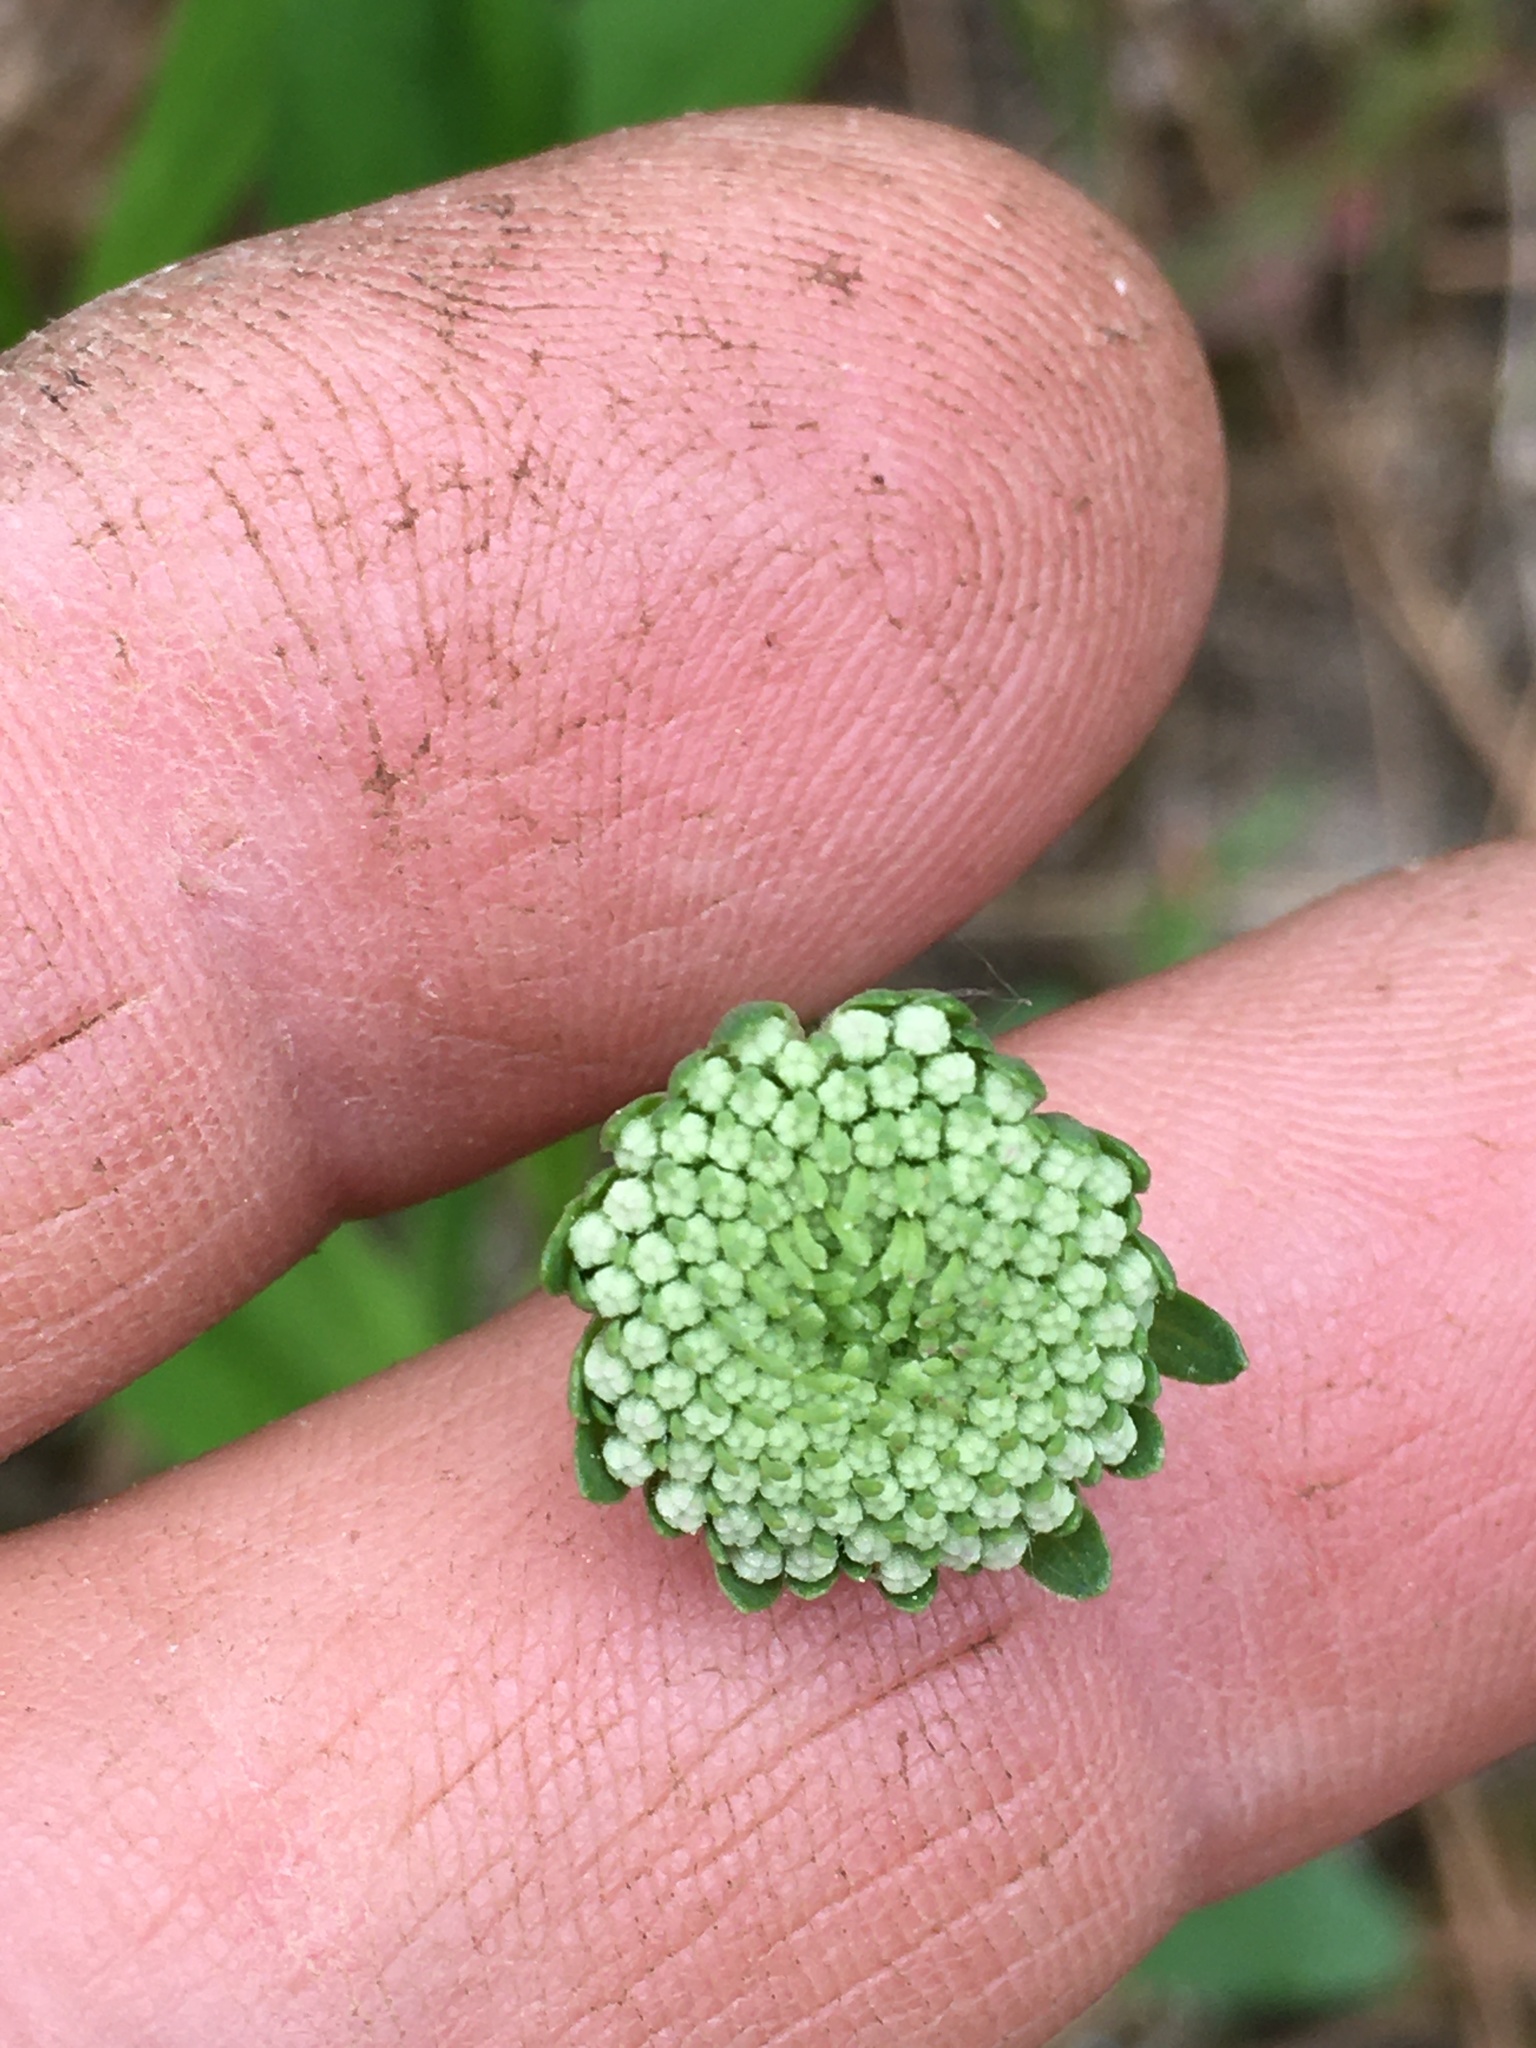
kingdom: Plantae
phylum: Tracheophyta
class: Magnoliopsida
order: Asterales
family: Asteraceae
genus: Marshallia
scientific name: Marshallia obovata
